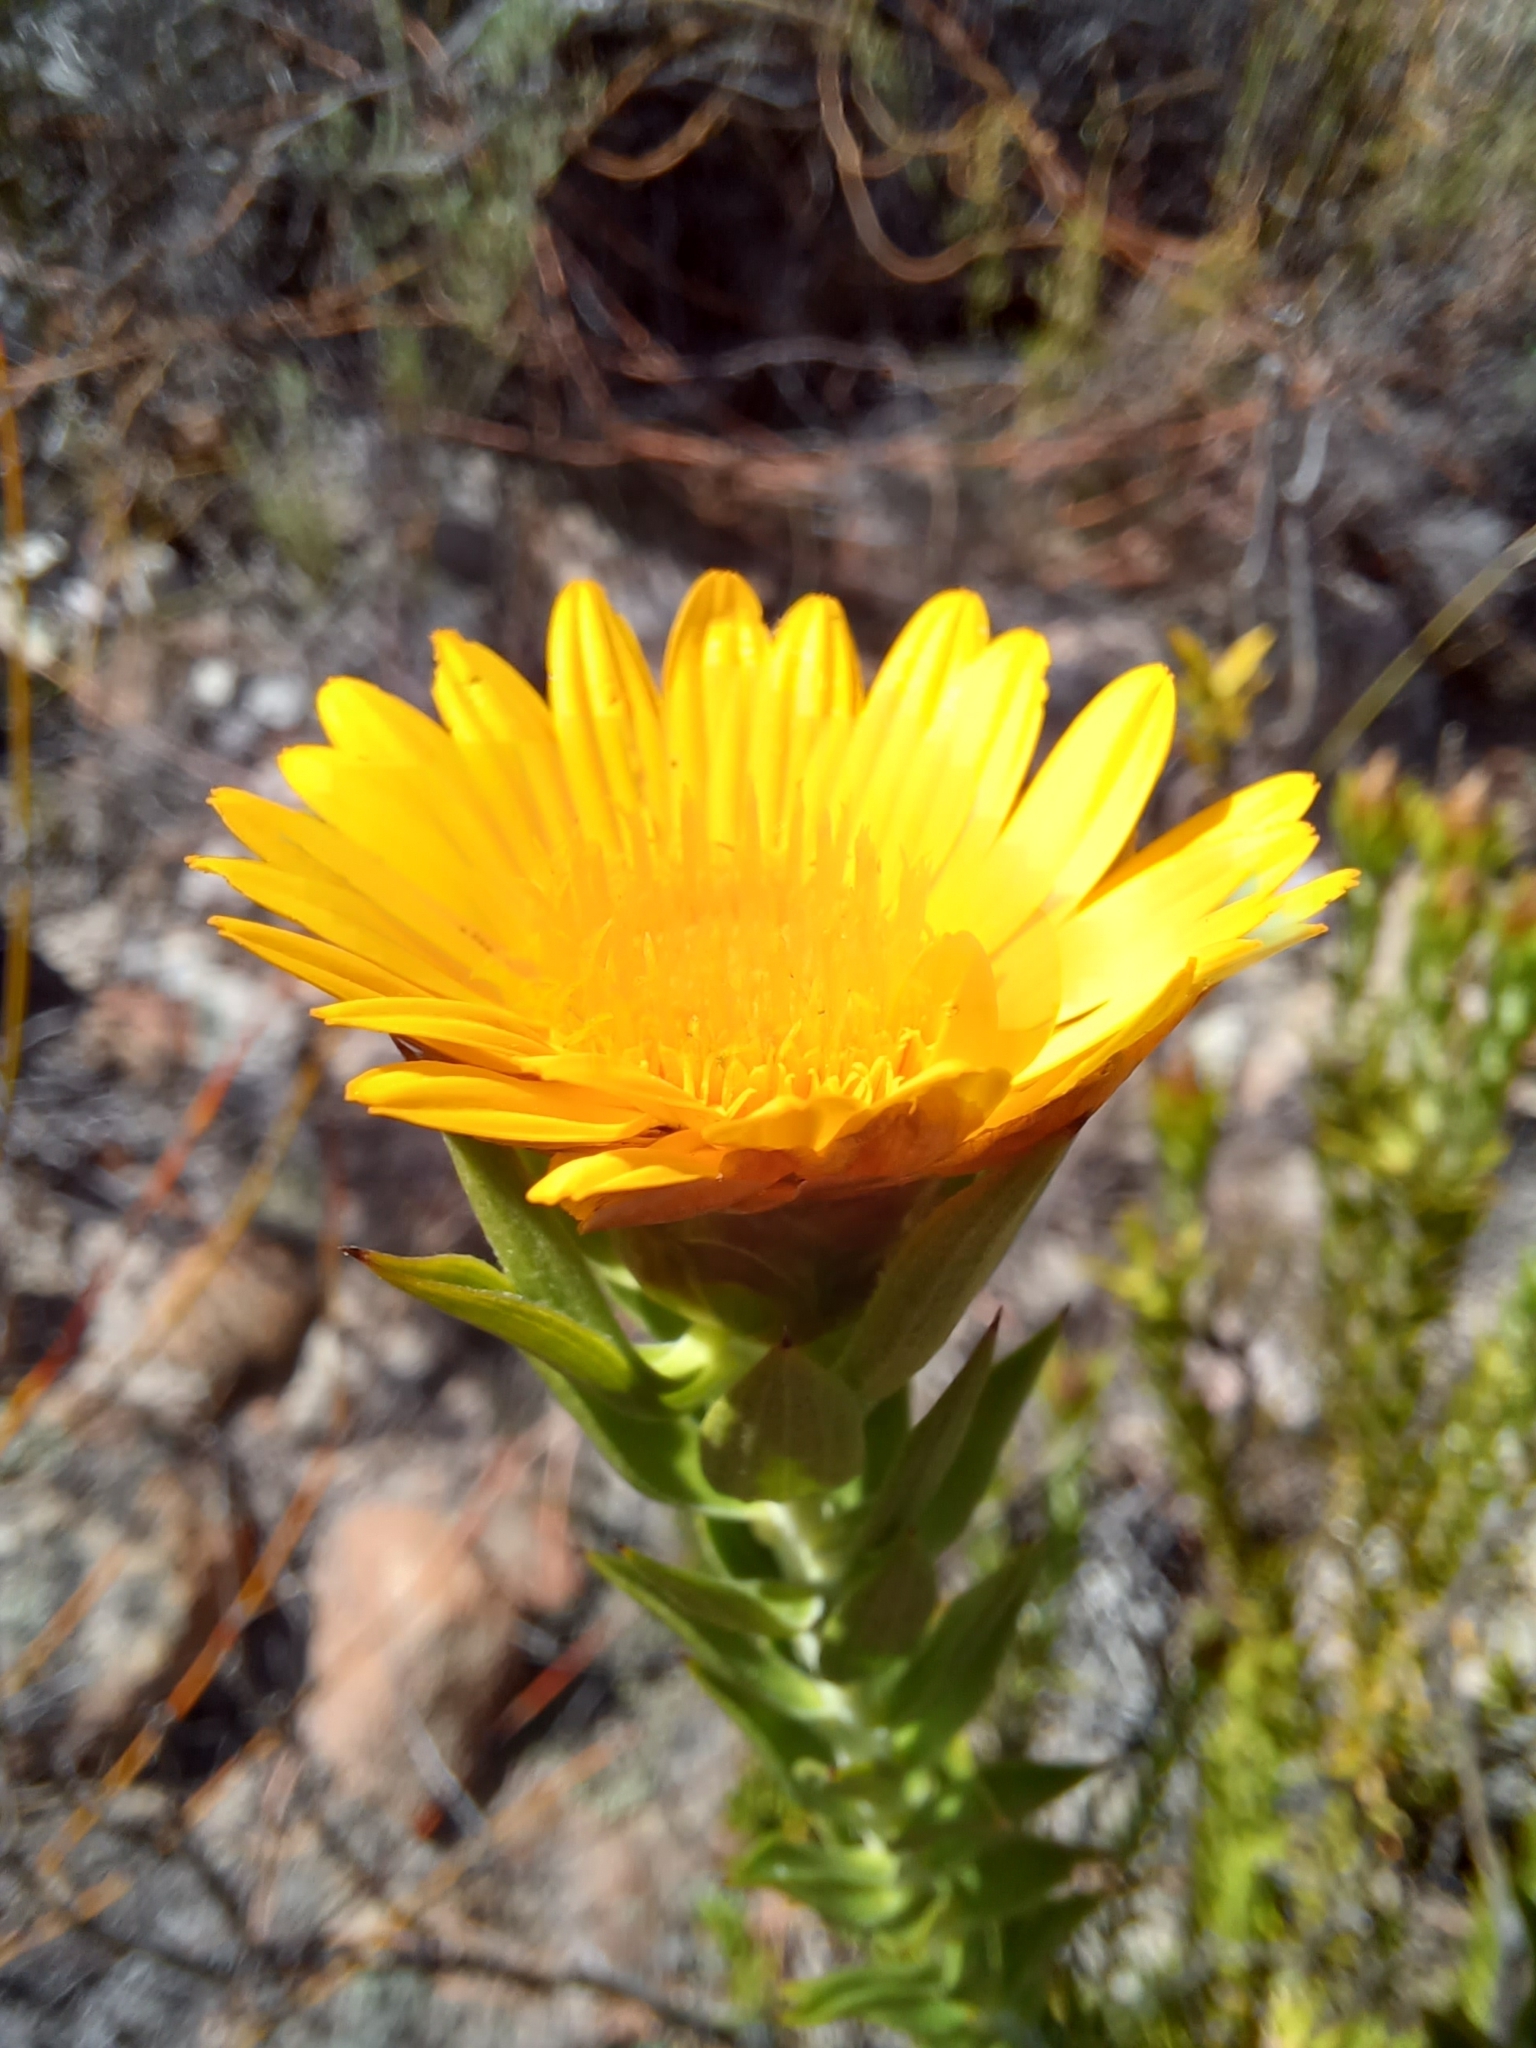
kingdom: Plantae
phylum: Tracheophyta
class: Magnoliopsida
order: Asterales
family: Asteraceae
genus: Oedera
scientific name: Oedera calycina
